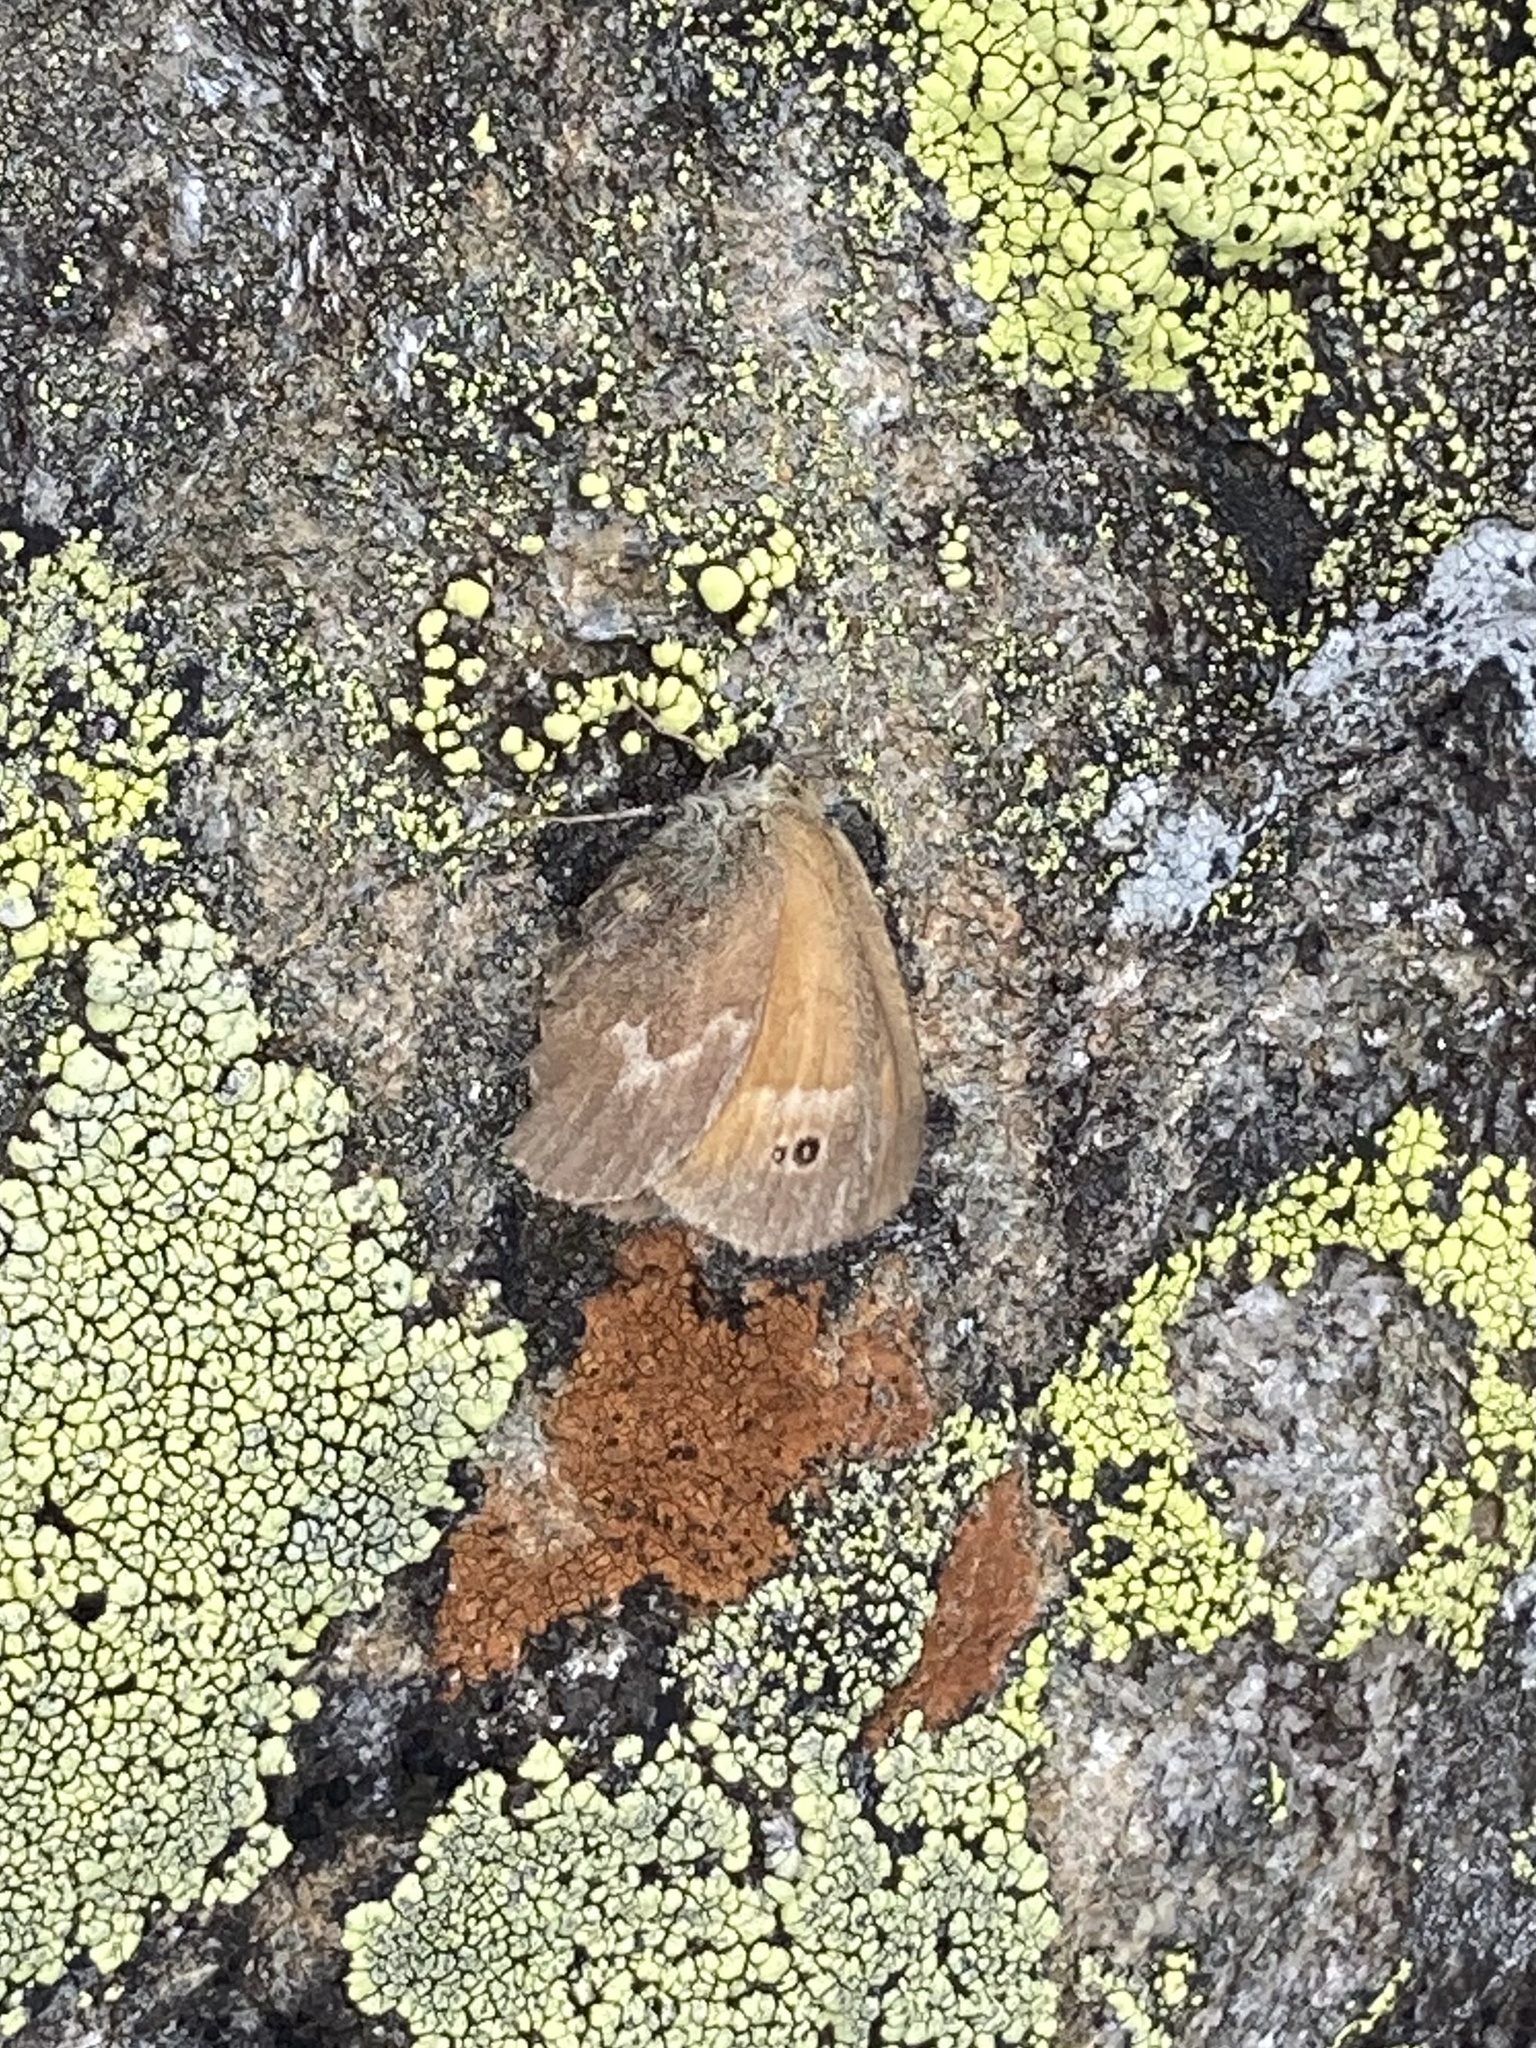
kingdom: Animalia
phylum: Arthropoda
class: Insecta
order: Lepidoptera
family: Nymphalidae
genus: Coenonympha
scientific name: Coenonympha california
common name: Common ringlet
